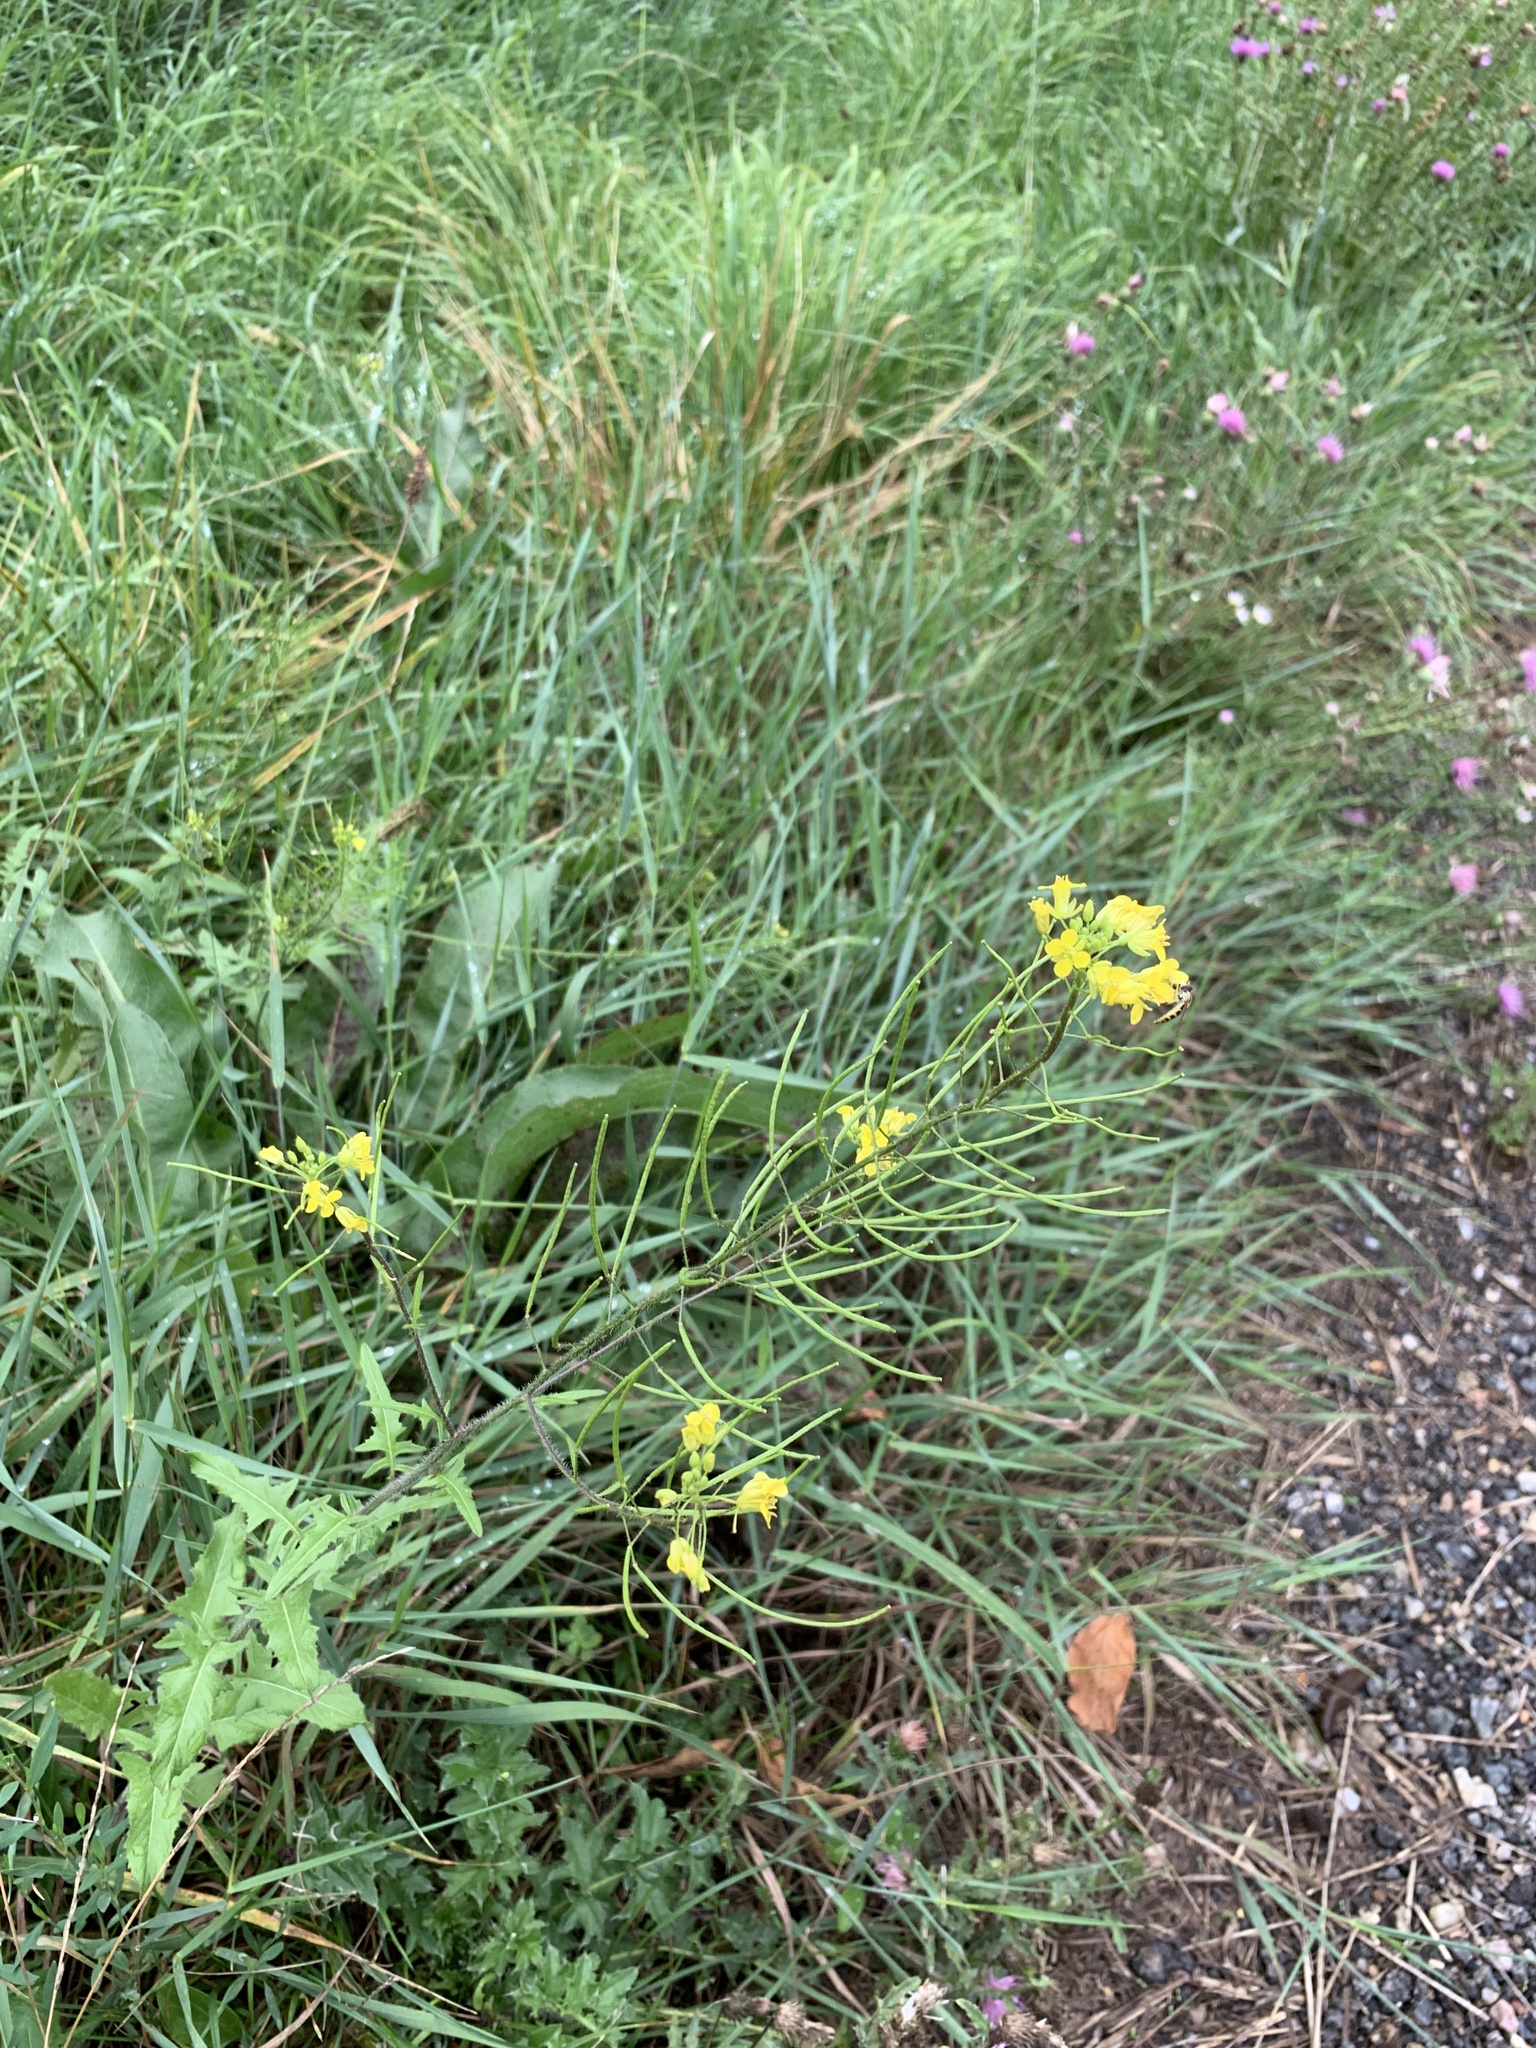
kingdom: Plantae
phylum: Tracheophyta
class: Magnoliopsida
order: Brassicales
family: Brassicaceae
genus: Sisymbrium
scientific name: Sisymbrium loeselii
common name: False london-rocket
